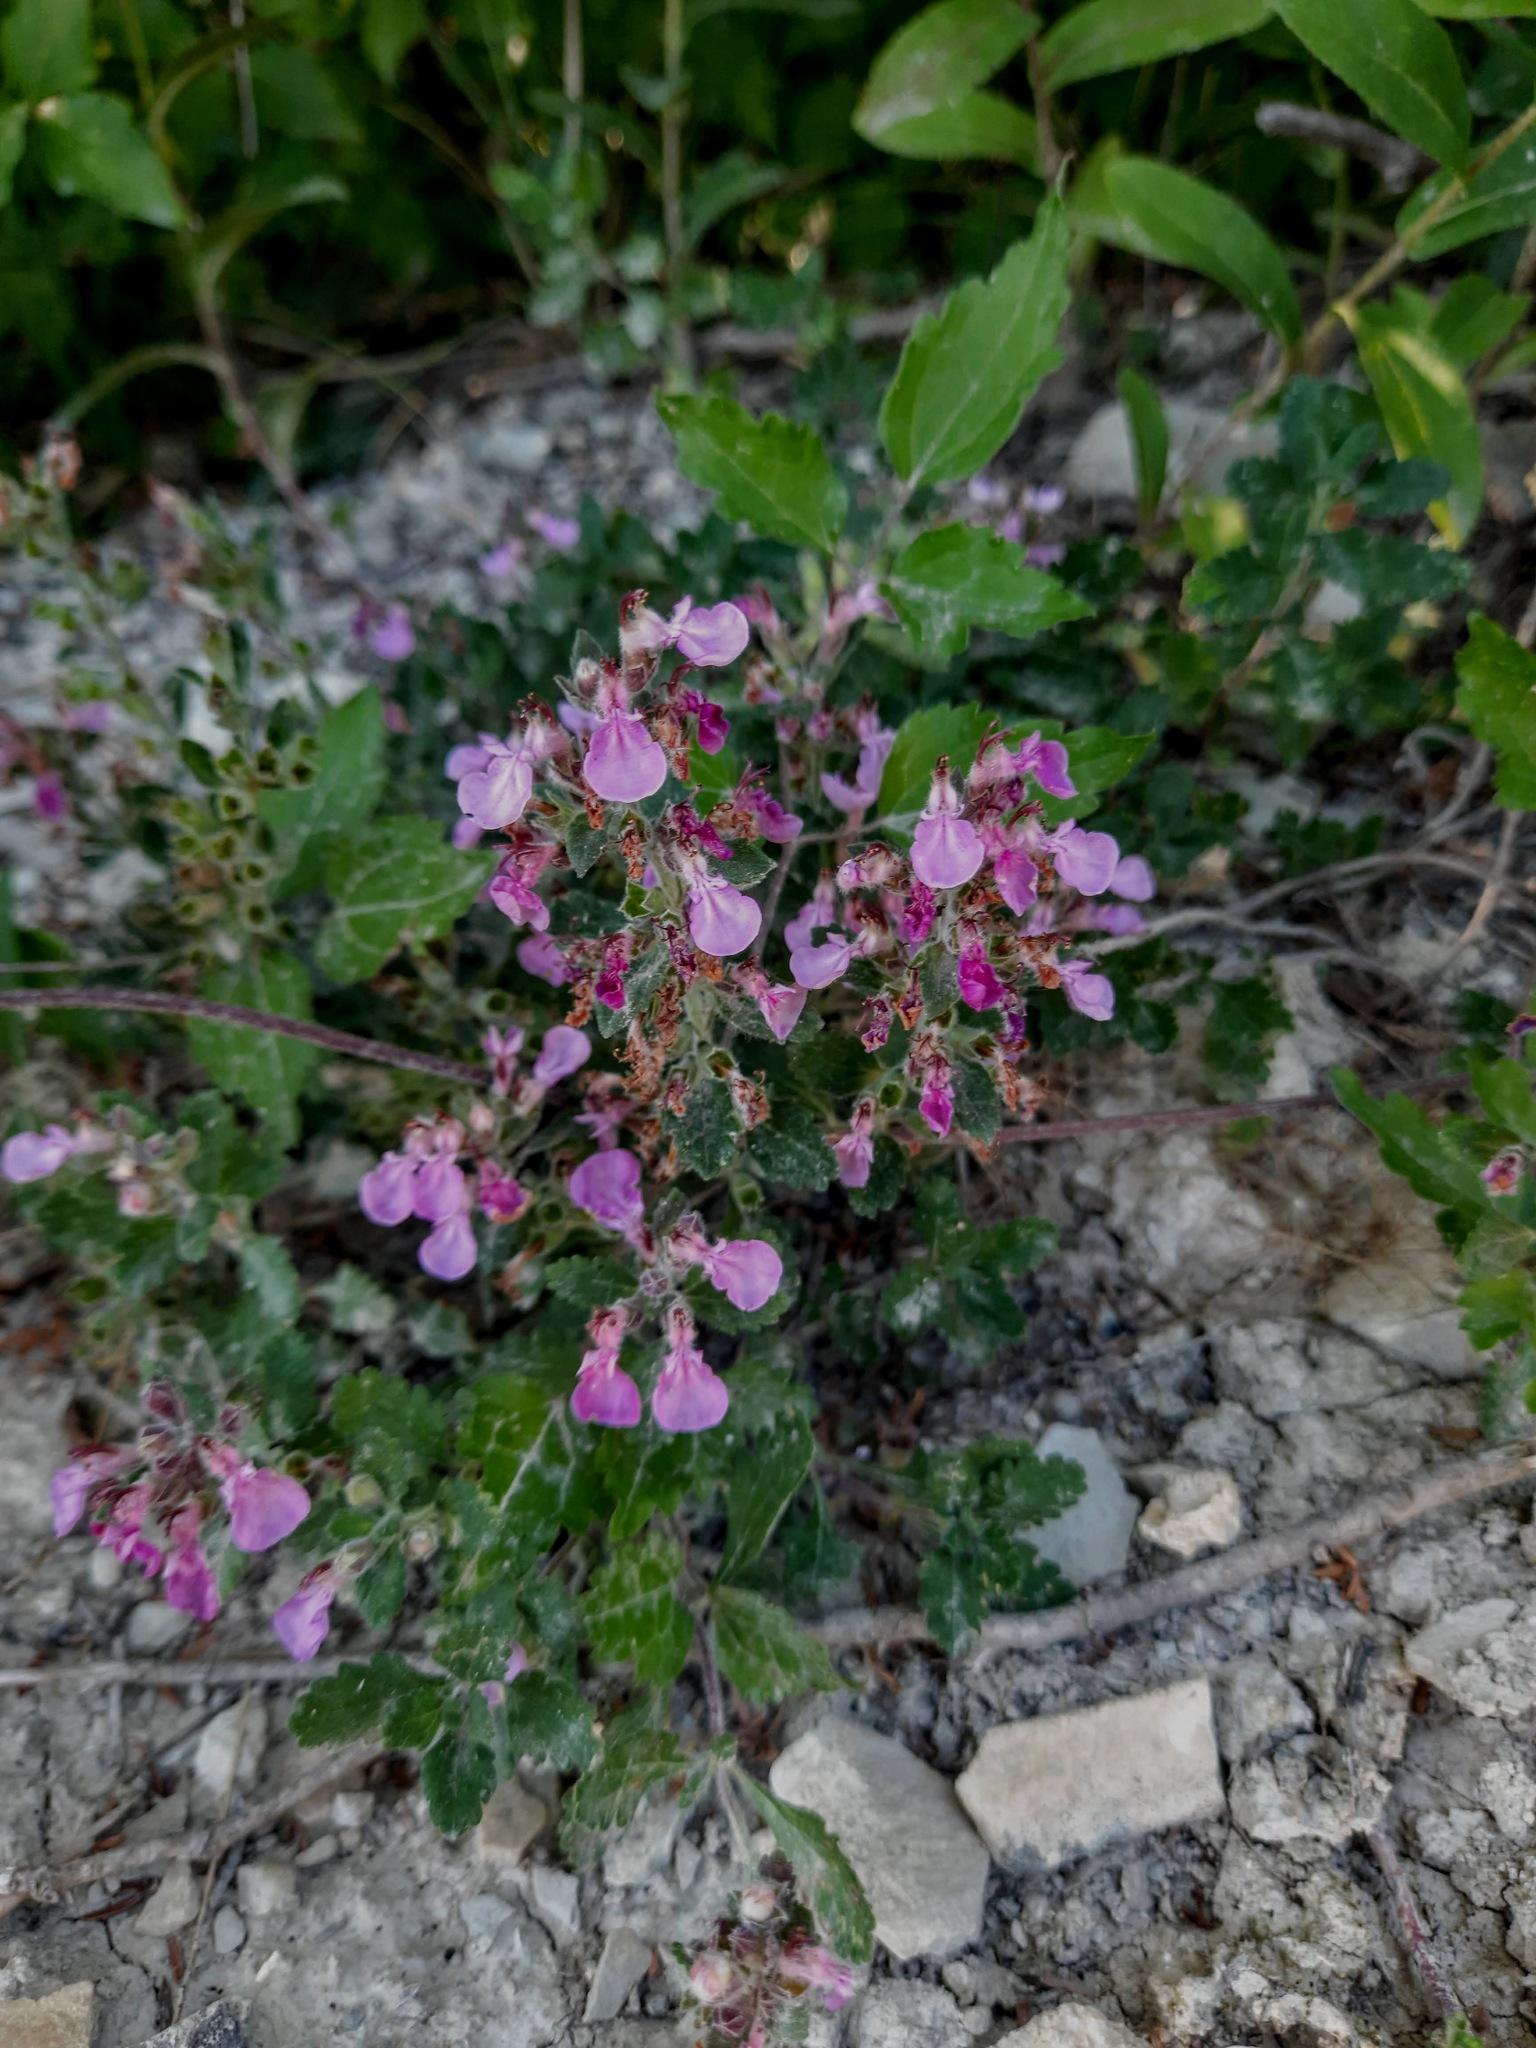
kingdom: Plantae
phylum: Tracheophyta
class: Magnoliopsida
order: Lamiales
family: Lamiaceae
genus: Teucrium
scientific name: Teucrium chamaedrys
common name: Wall germander
